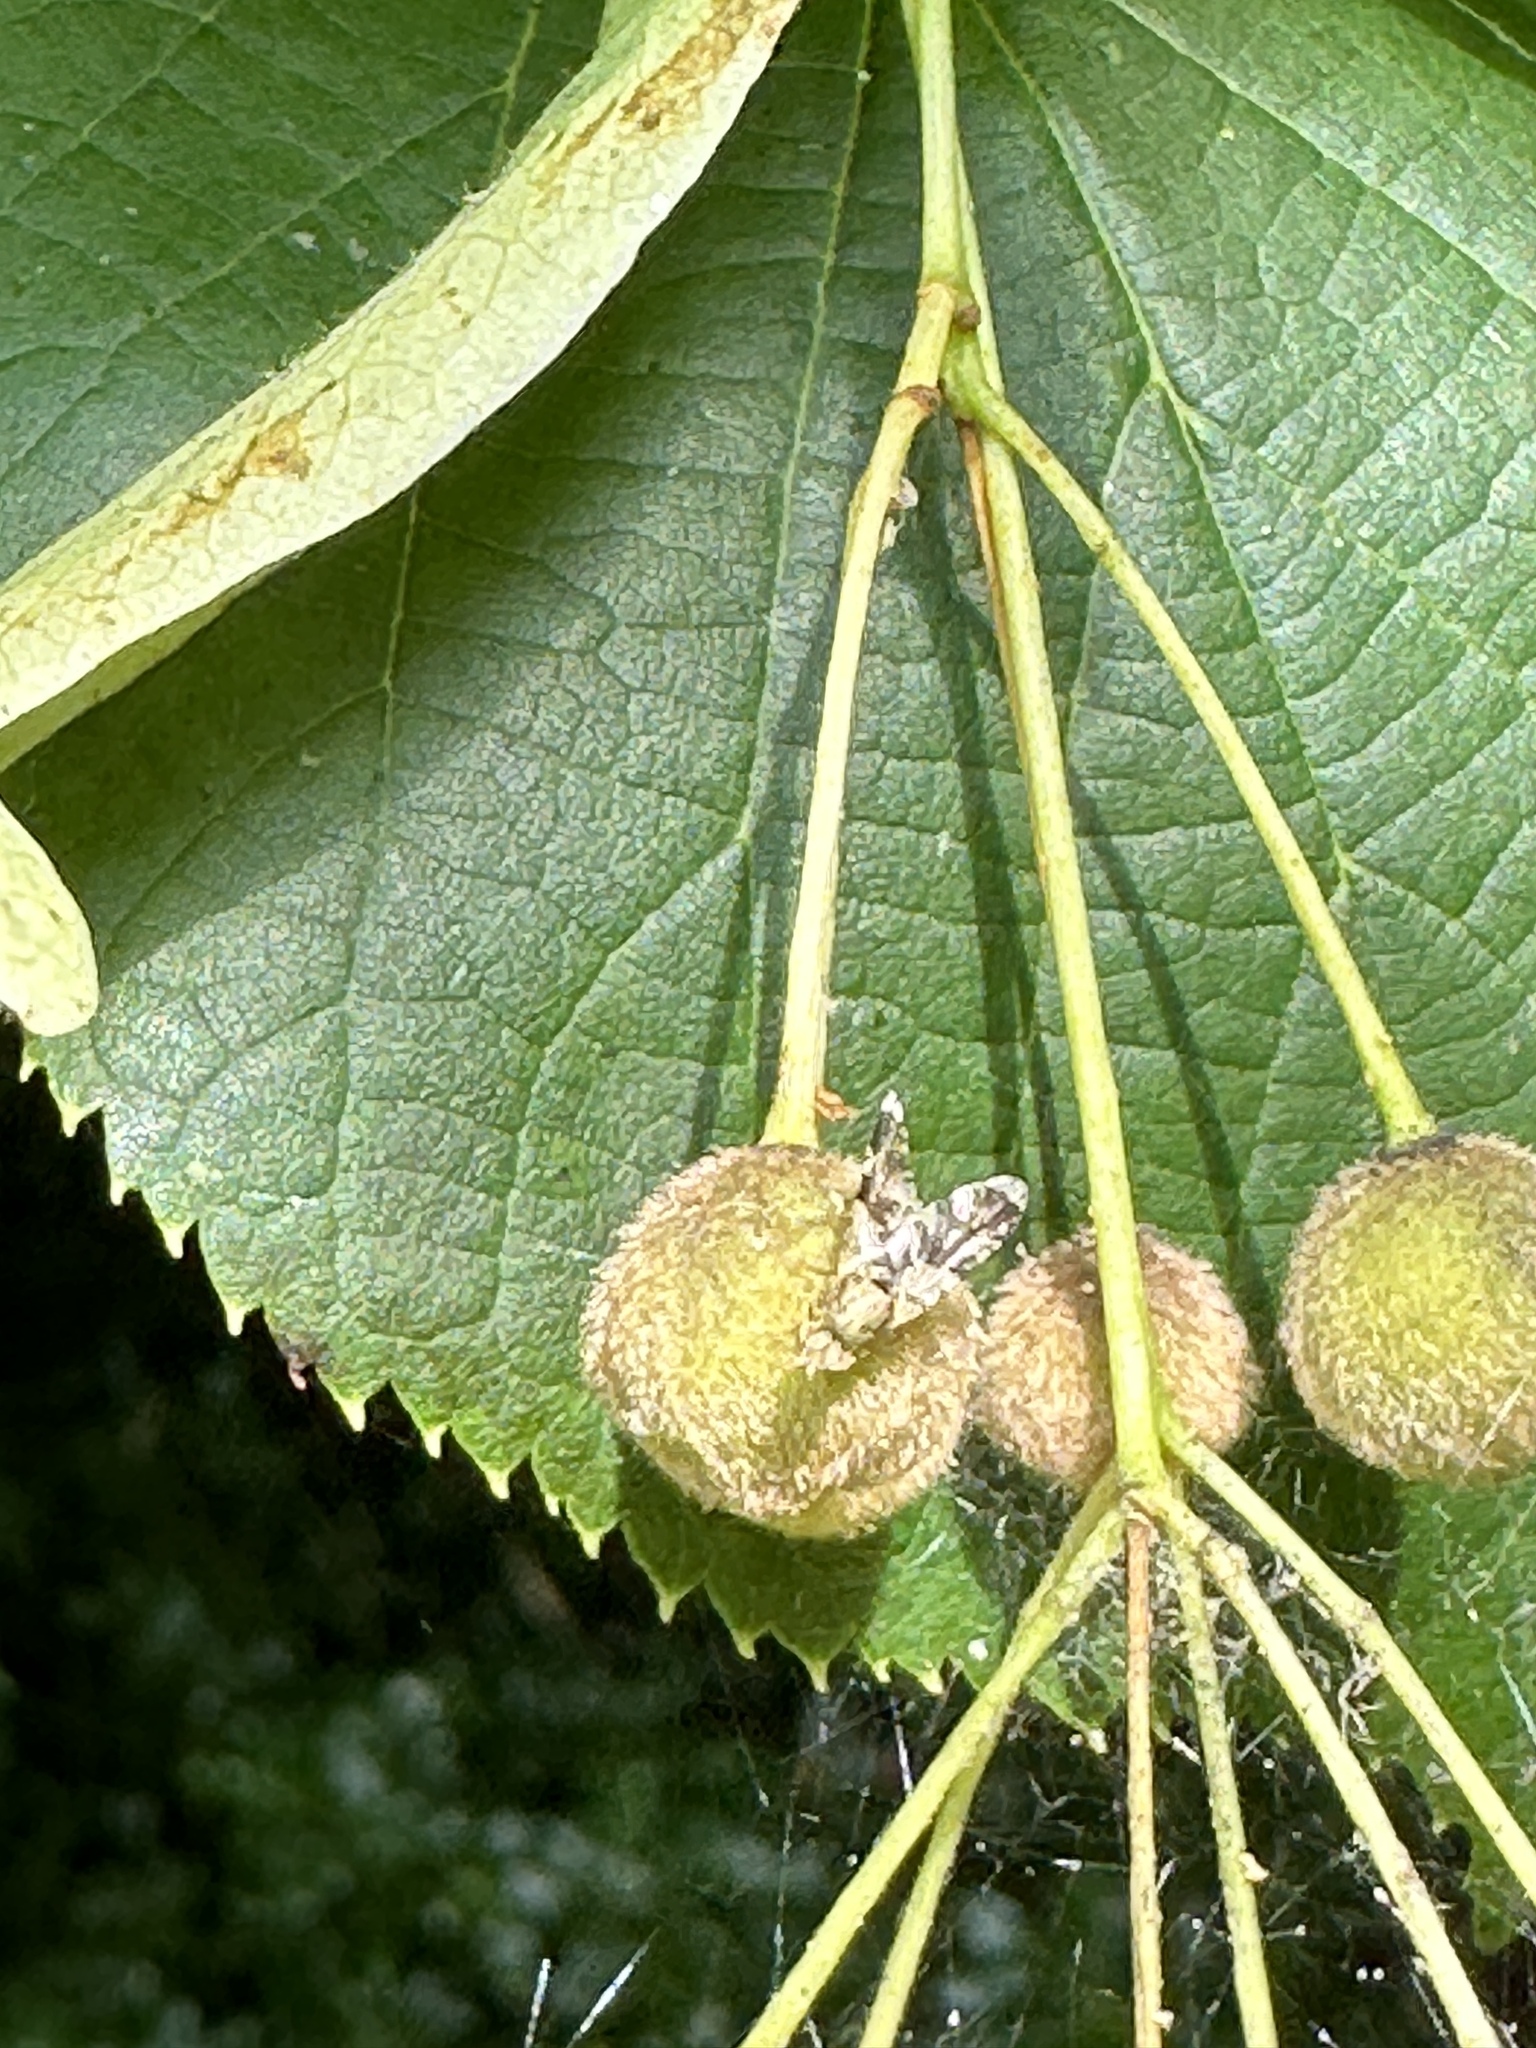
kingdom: Animalia
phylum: Arthropoda
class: Insecta
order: Diptera
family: Tephritidae
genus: Tephritis
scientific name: Tephritis formosa
